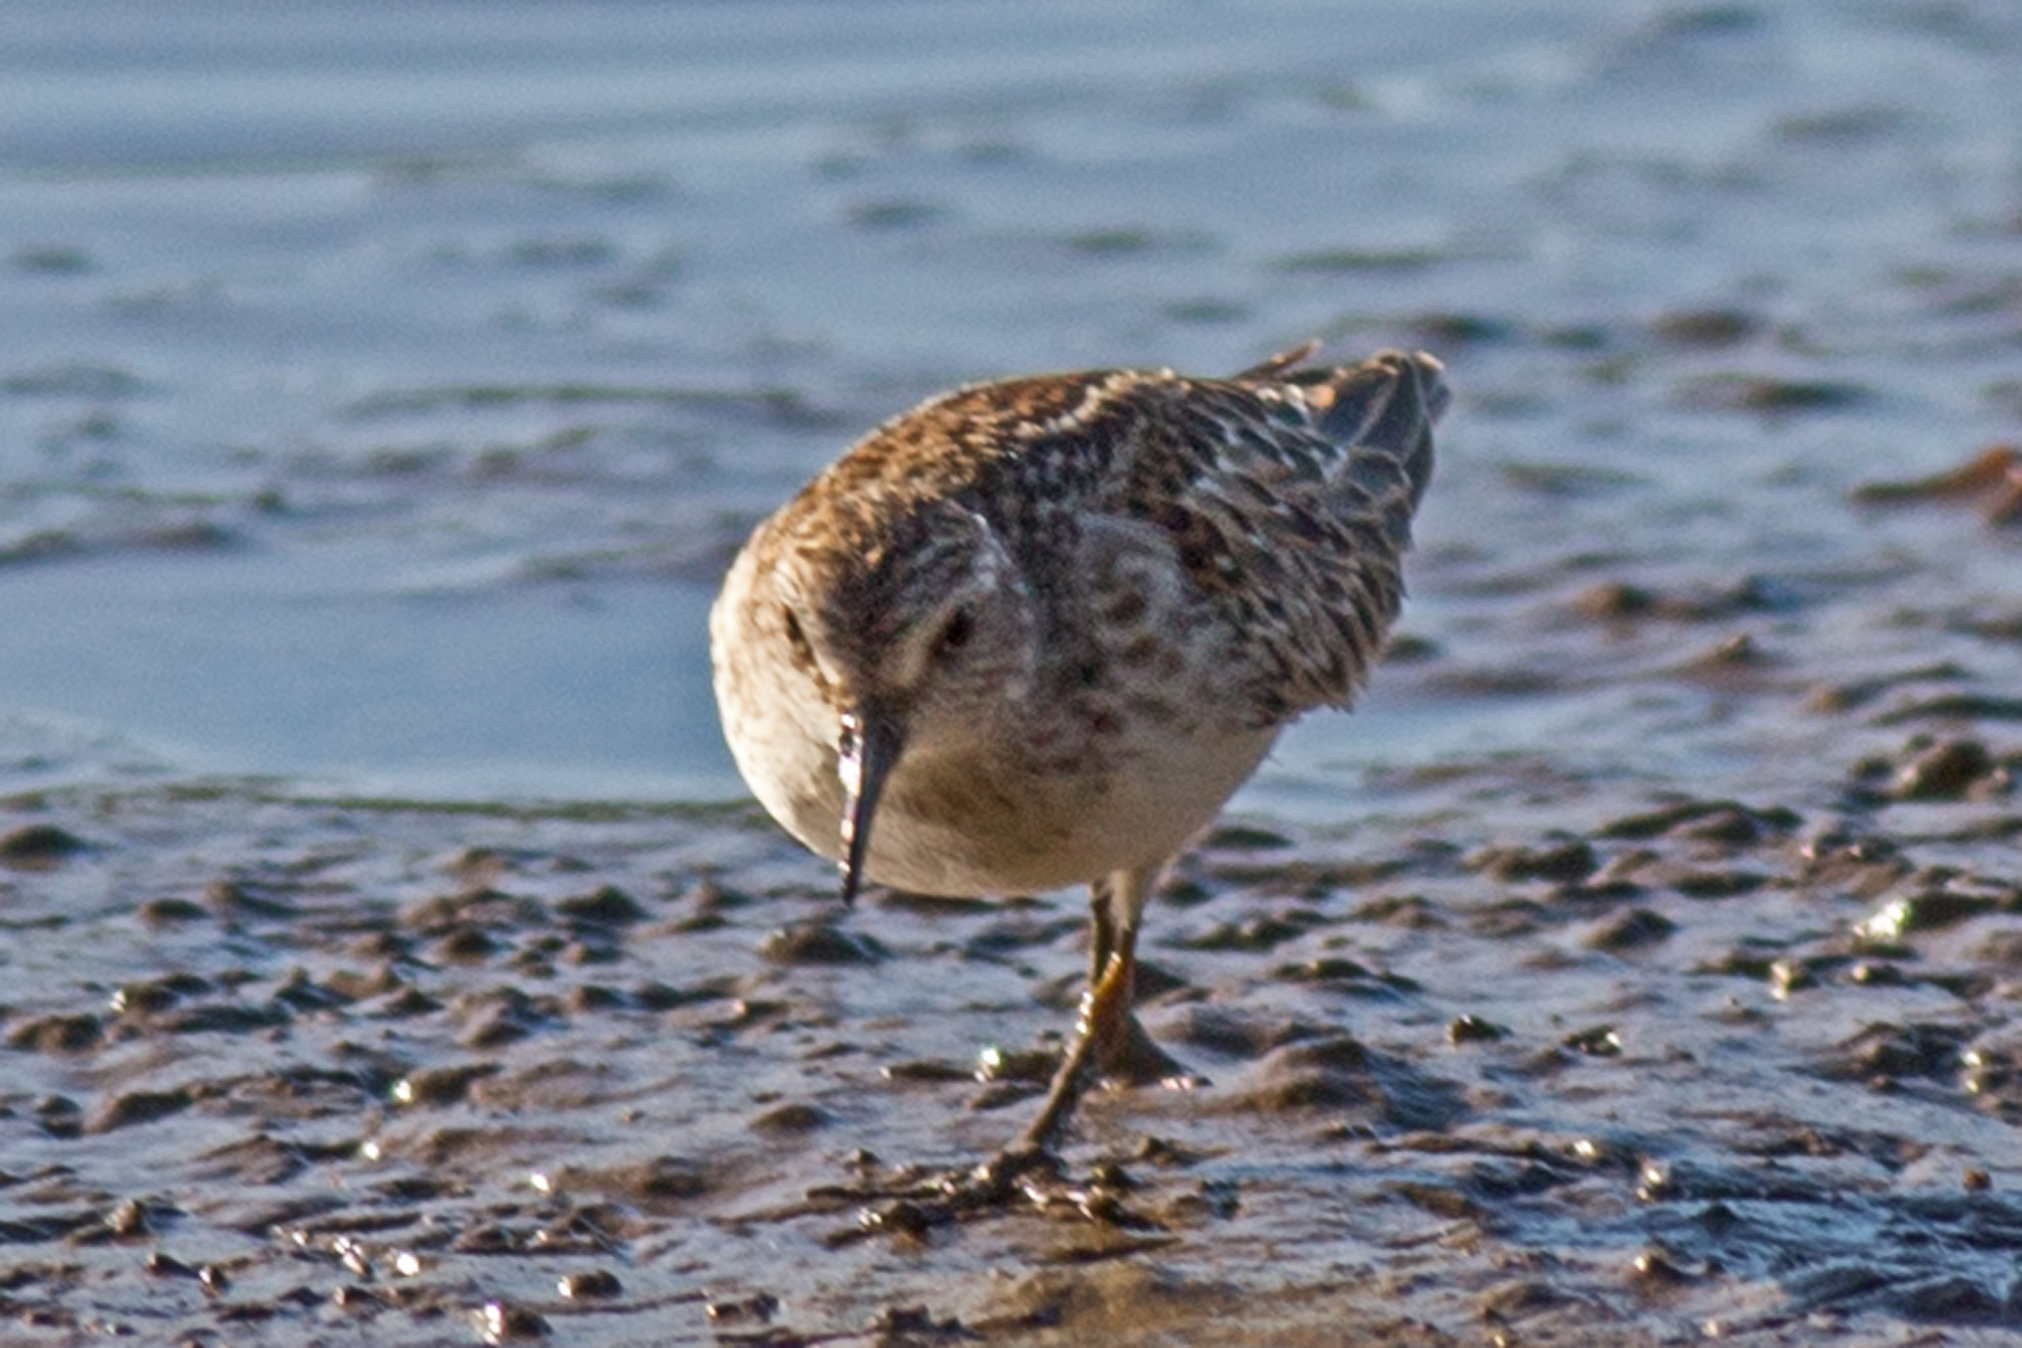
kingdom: Animalia
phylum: Chordata
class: Aves
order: Charadriiformes
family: Scolopacidae
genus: Calidris
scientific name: Calidris minutilla
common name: Least sandpiper
